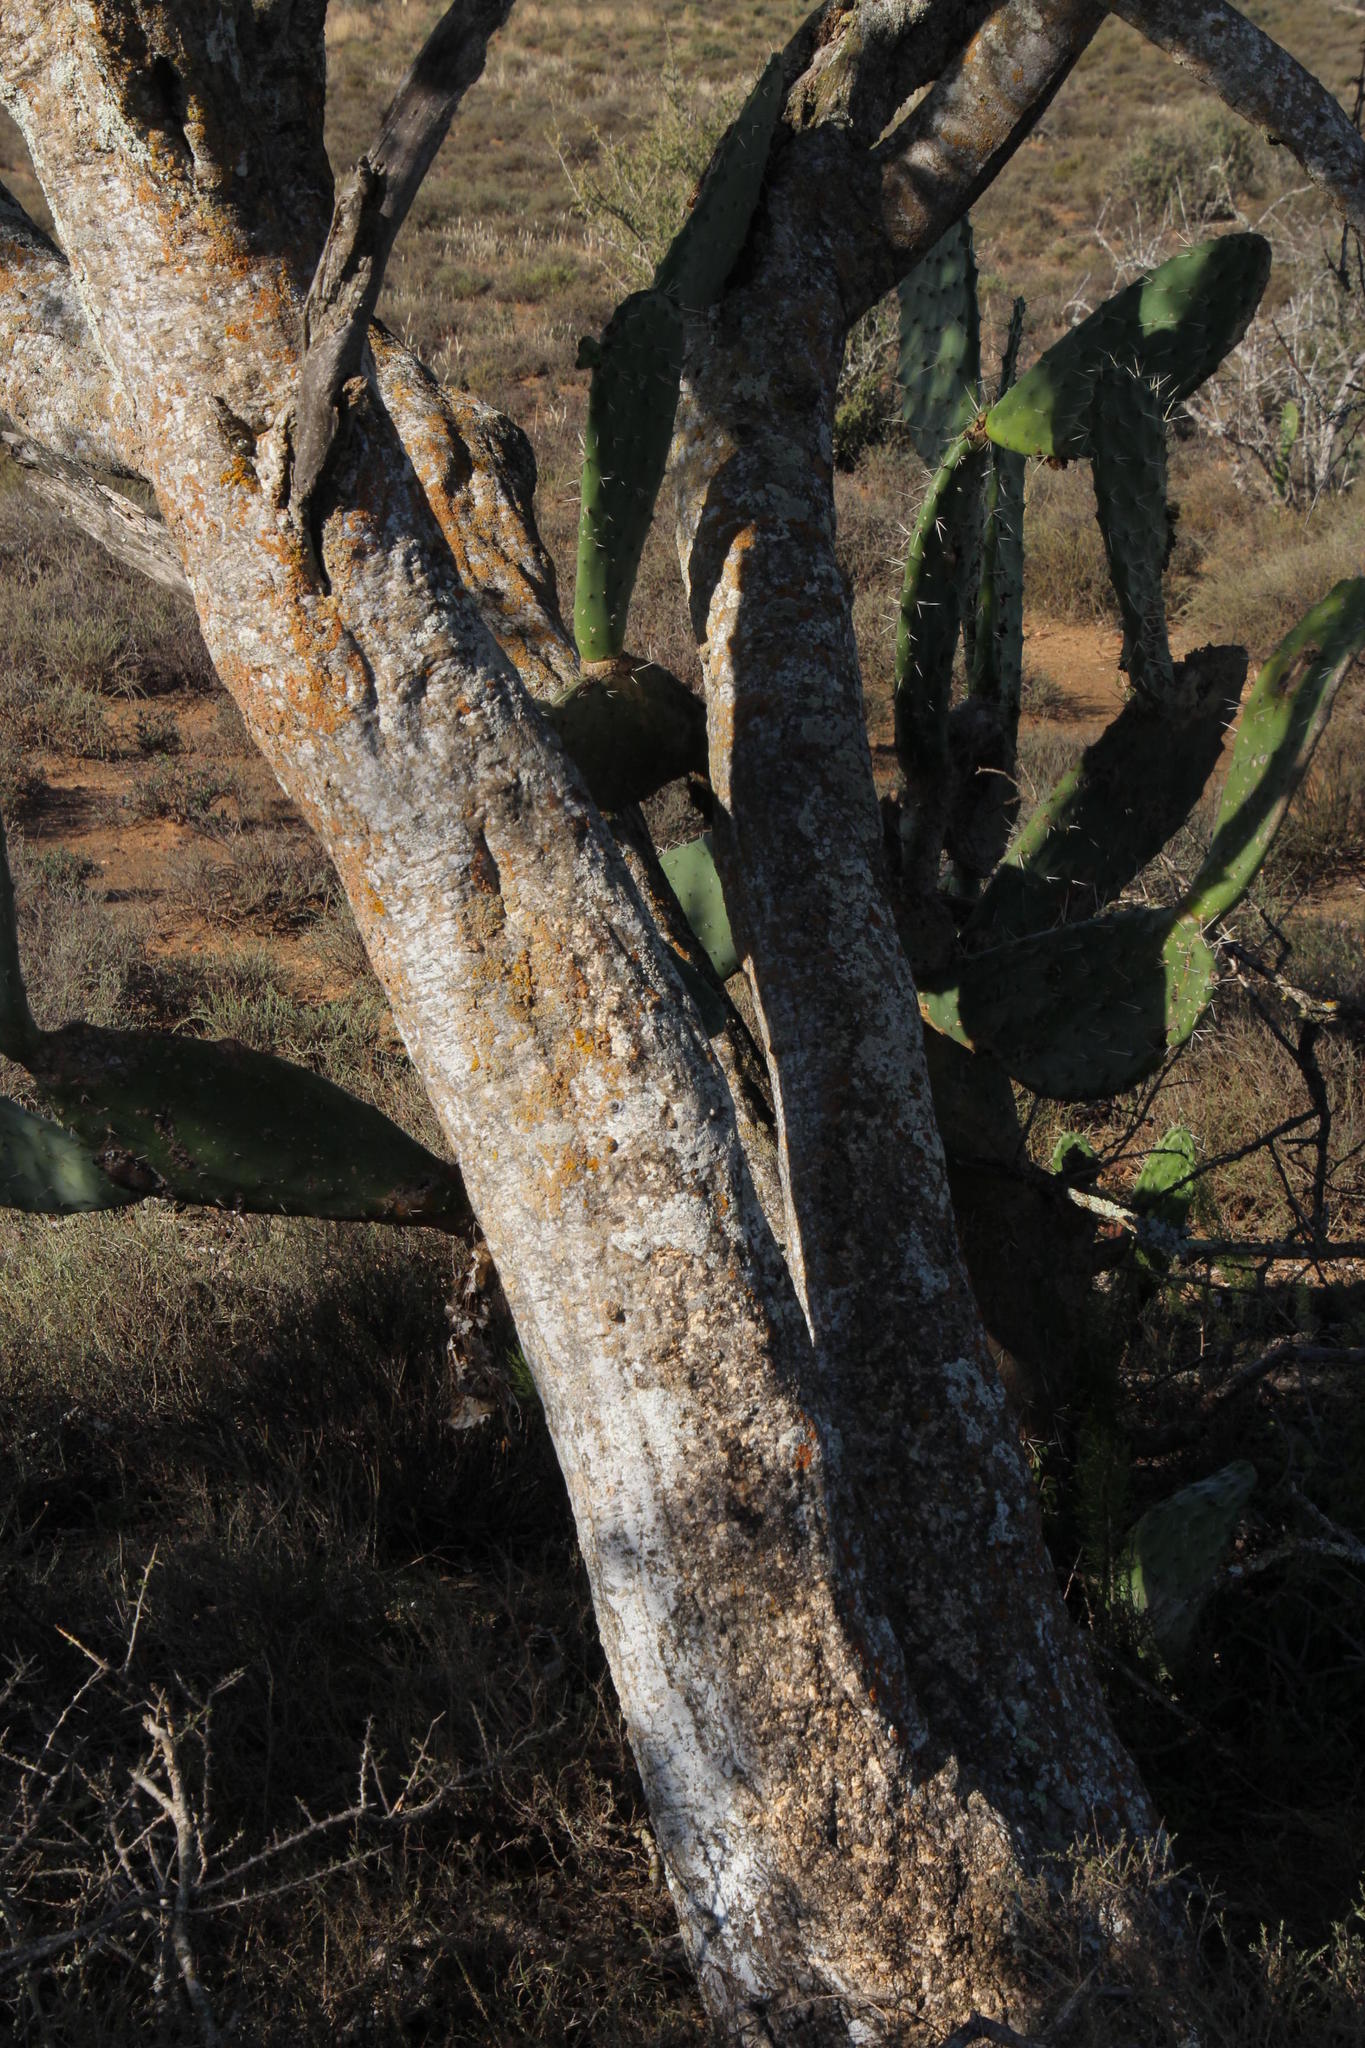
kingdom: Plantae
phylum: Tracheophyta
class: Magnoliopsida
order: Brassicales
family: Capparaceae
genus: Boscia
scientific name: Boscia albitrunca
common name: Caper bush
